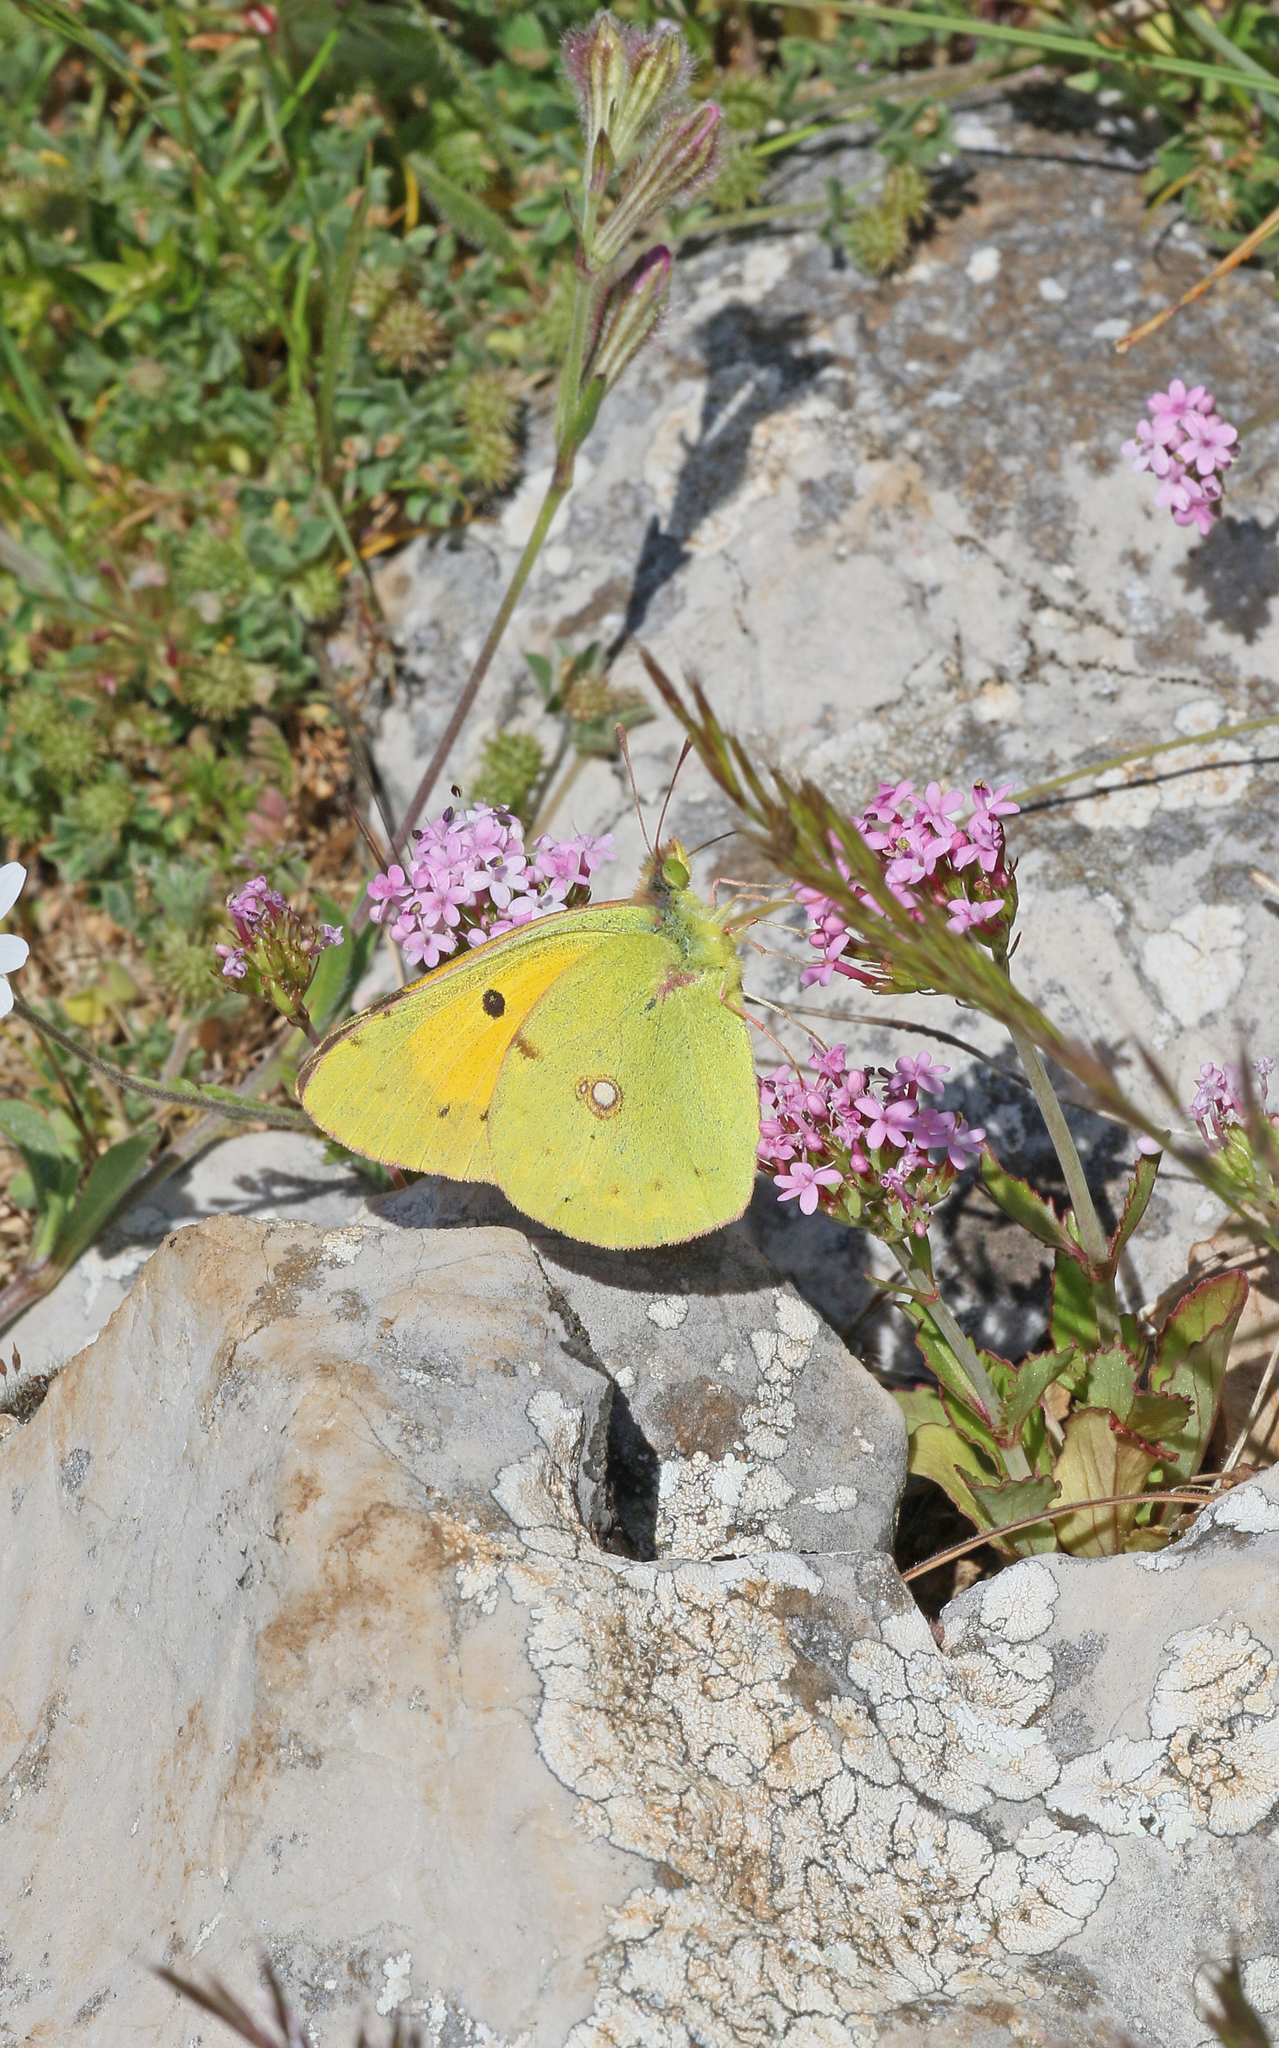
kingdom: Animalia
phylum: Arthropoda
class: Insecta
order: Lepidoptera
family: Pieridae
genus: Colias
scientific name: Colias croceus
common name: Clouded yellow
